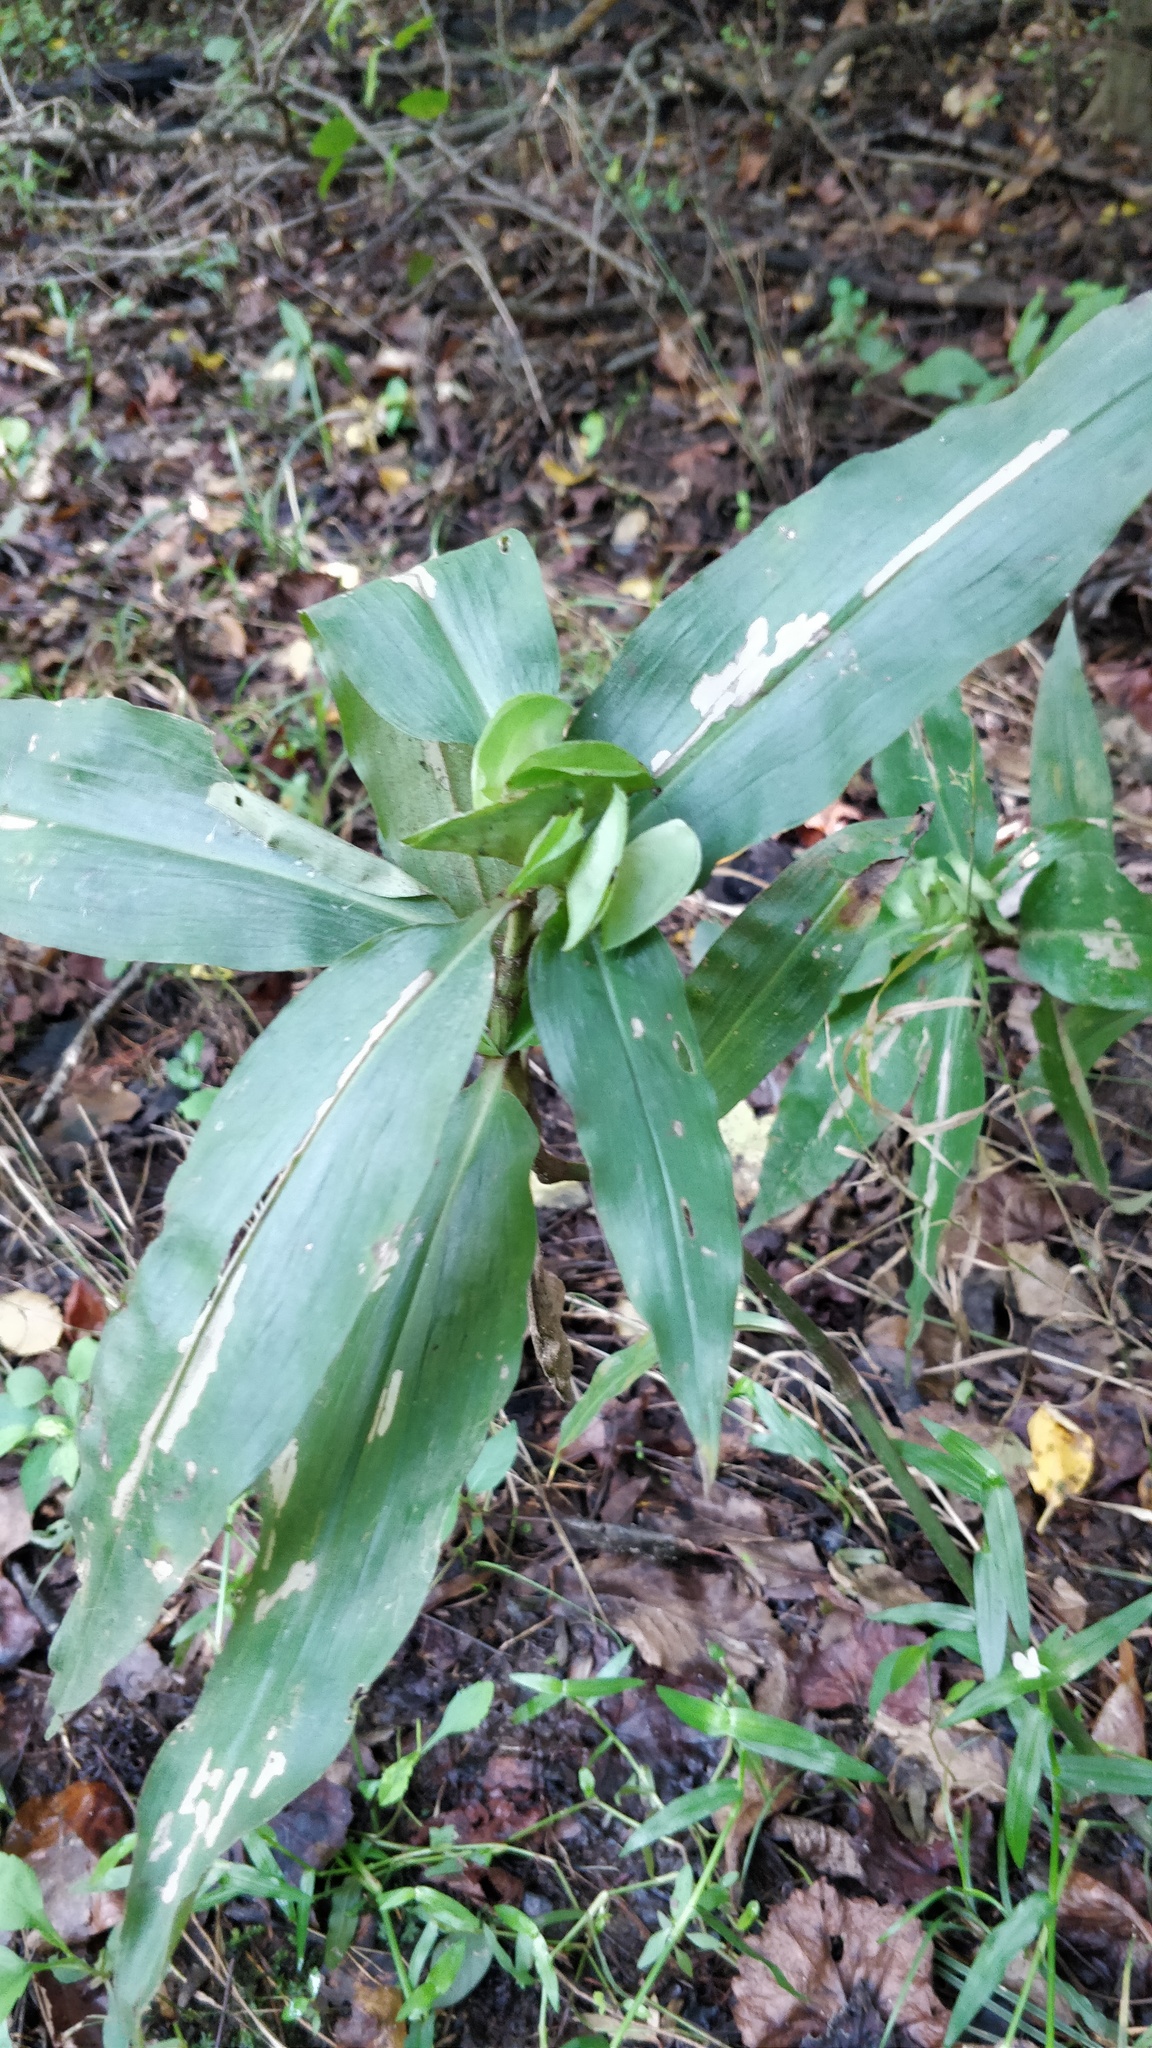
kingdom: Plantae
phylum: Tracheophyta
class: Liliopsida
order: Commelinales
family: Commelinaceae
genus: Commelina
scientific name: Commelina virginica
